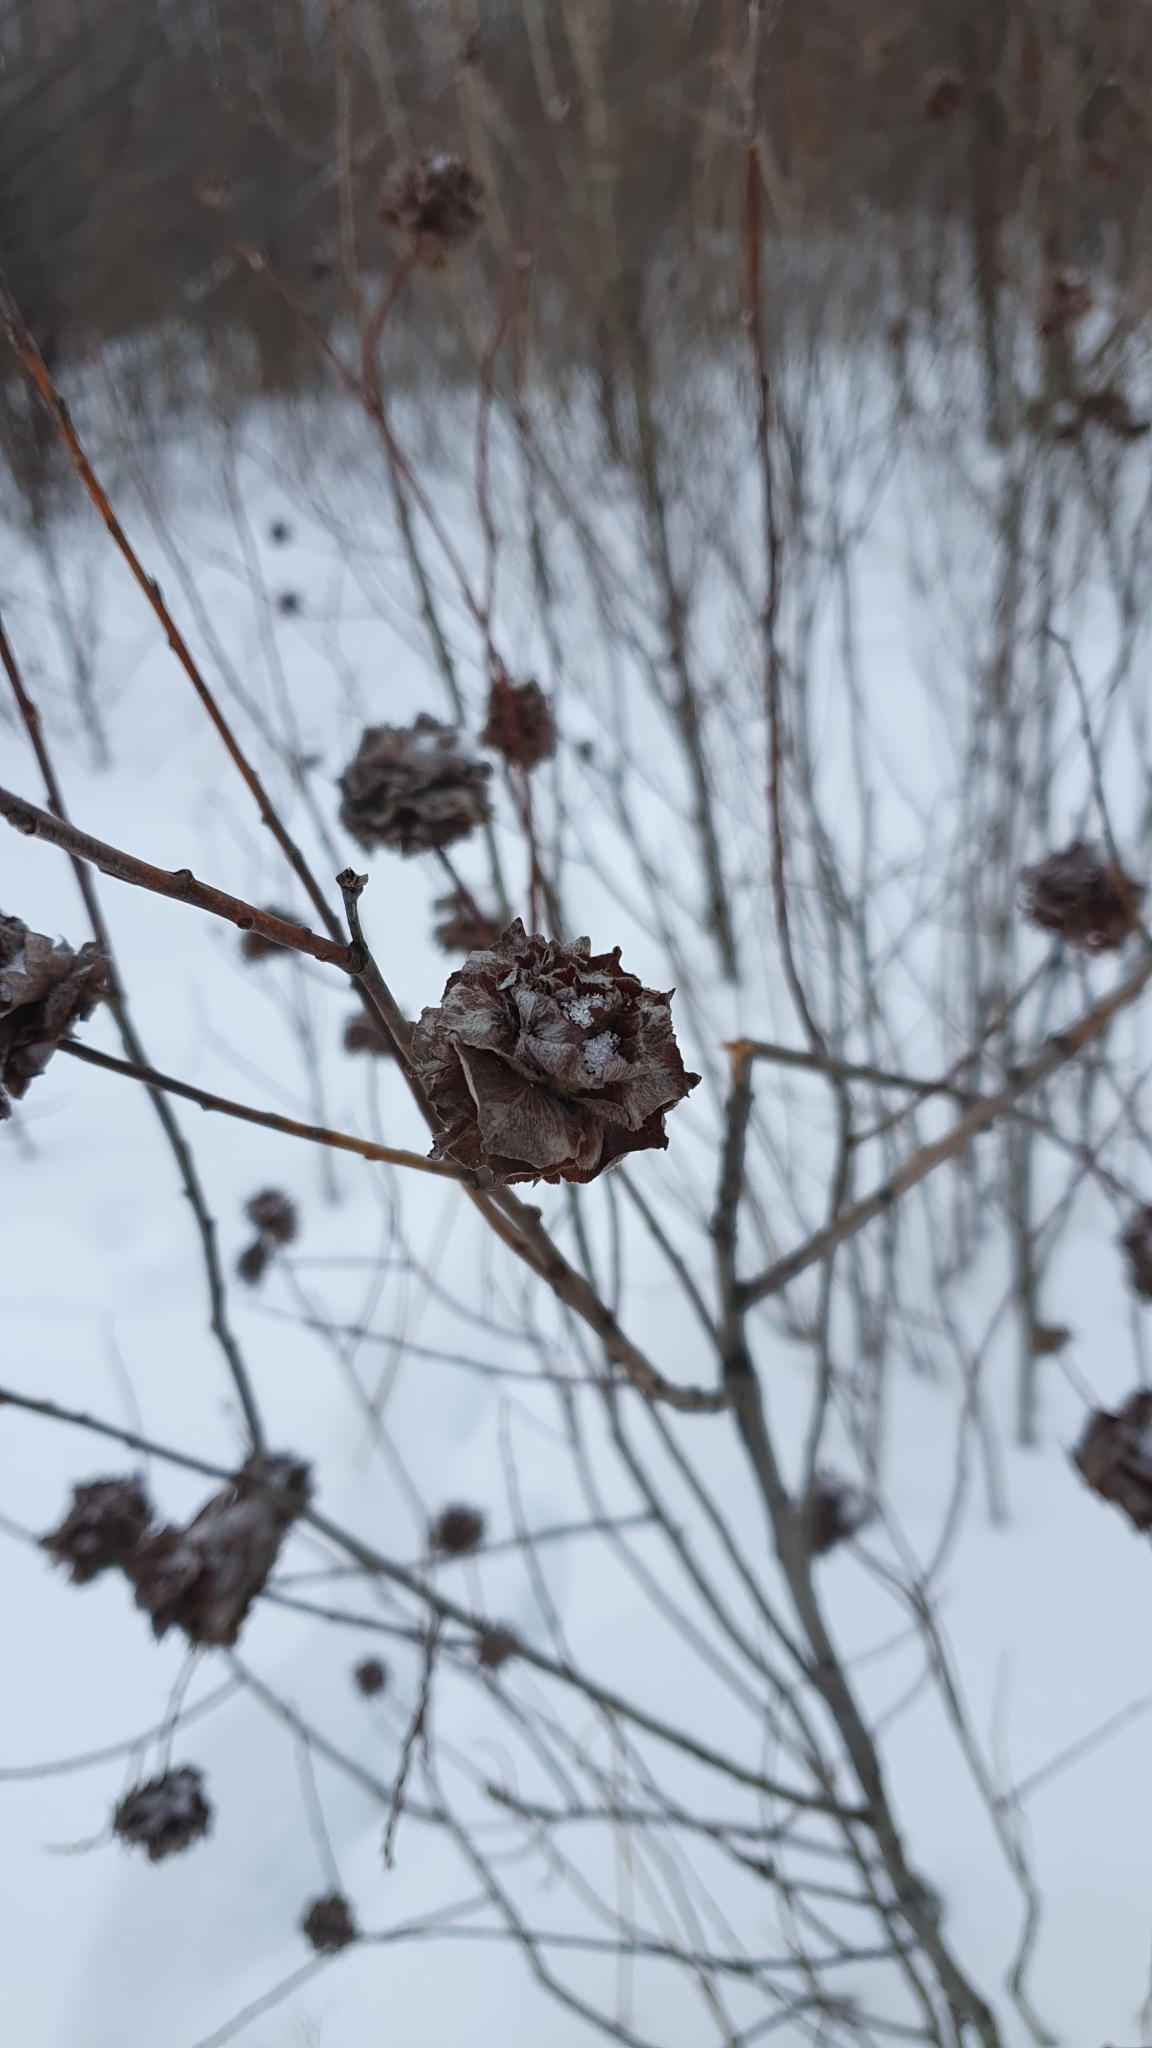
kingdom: Animalia
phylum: Arthropoda
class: Insecta
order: Diptera
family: Cecidomyiidae
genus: Rabdophaga
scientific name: Rabdophaga rosaria
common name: Willow rose gall midge
